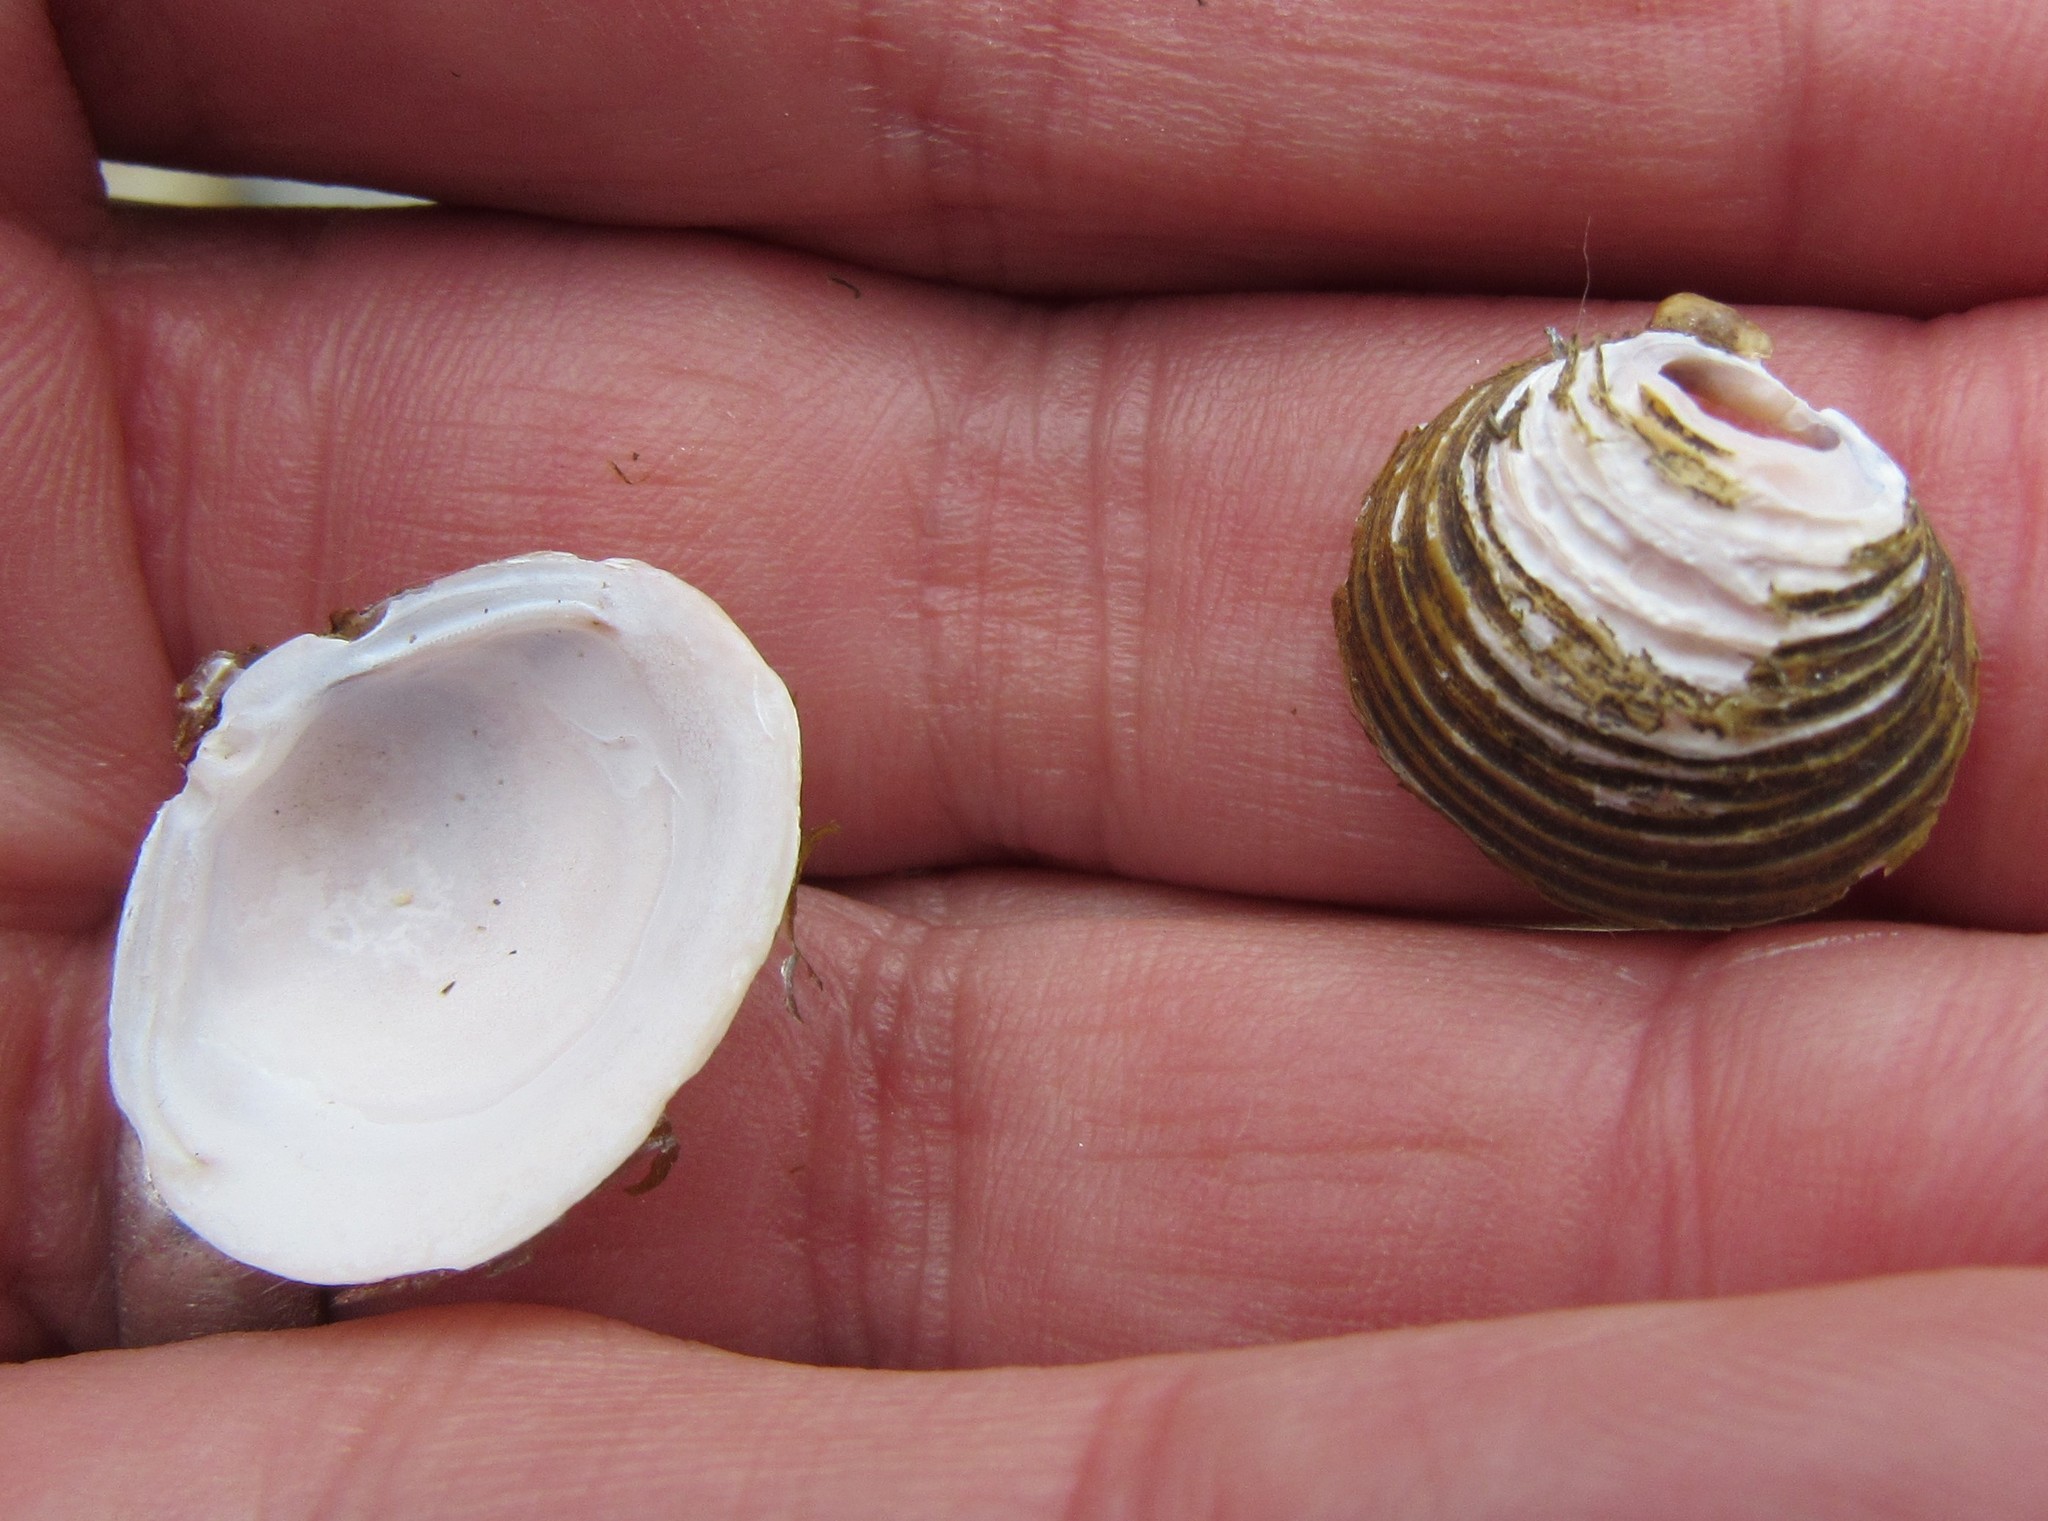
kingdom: Animalia
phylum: Mollusca
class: Bivalvia
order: Venerida
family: Cyrenidae
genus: Corbicula
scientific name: Corbicula fluminea
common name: Asian clam
